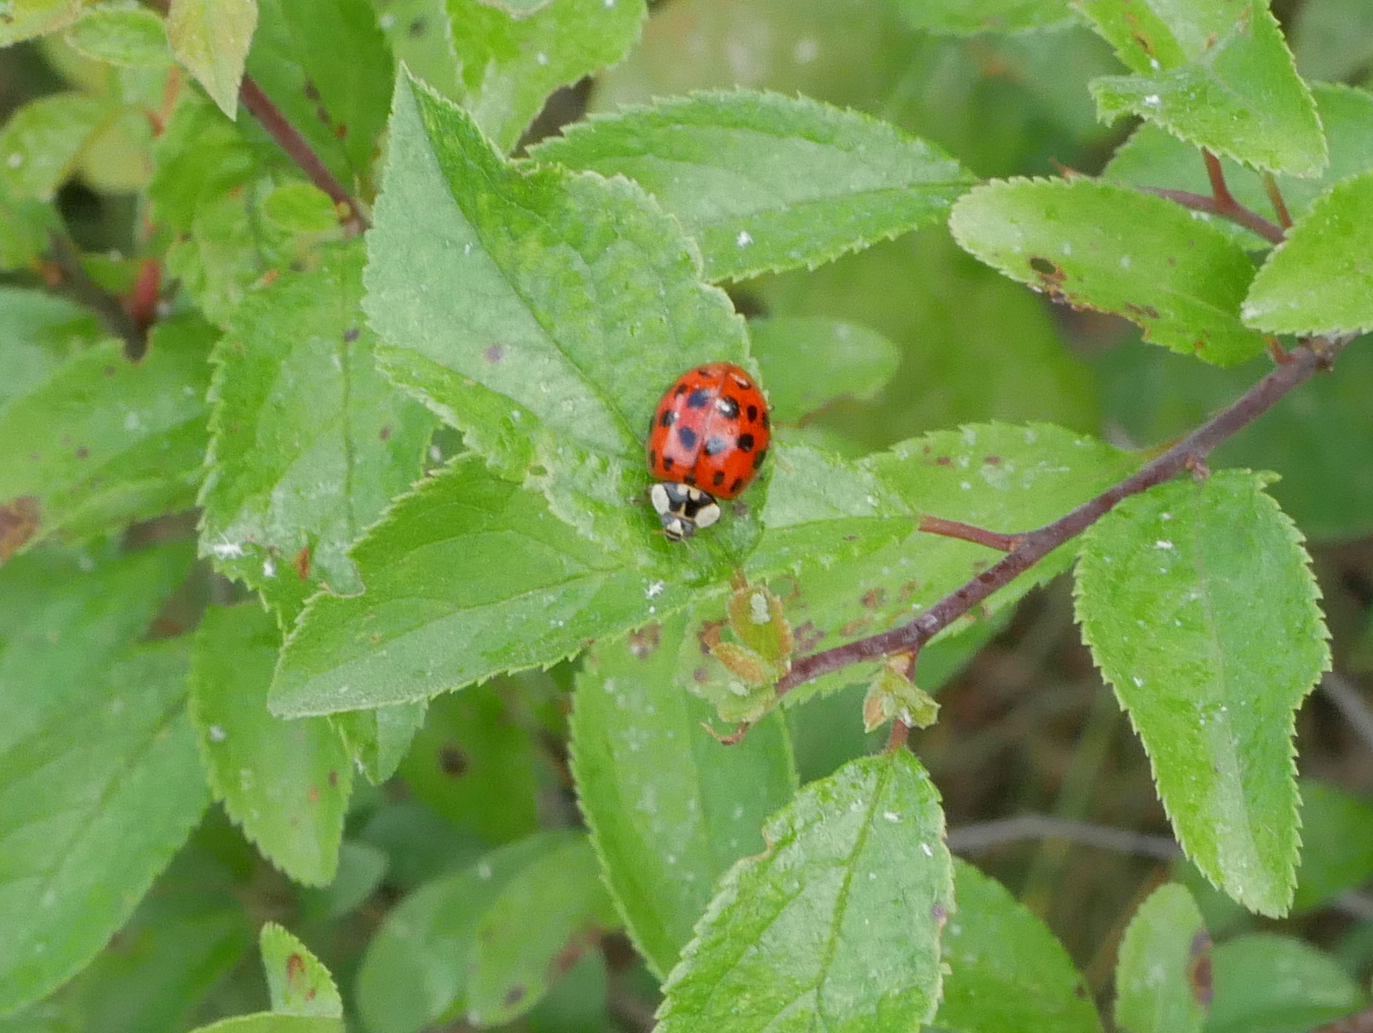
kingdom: Animalia
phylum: Arthropoda
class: Insecta
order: Coleoptera
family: Coccinellidae
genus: Harmonia
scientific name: Harmonia axyridis
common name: Harlequin ladybird
